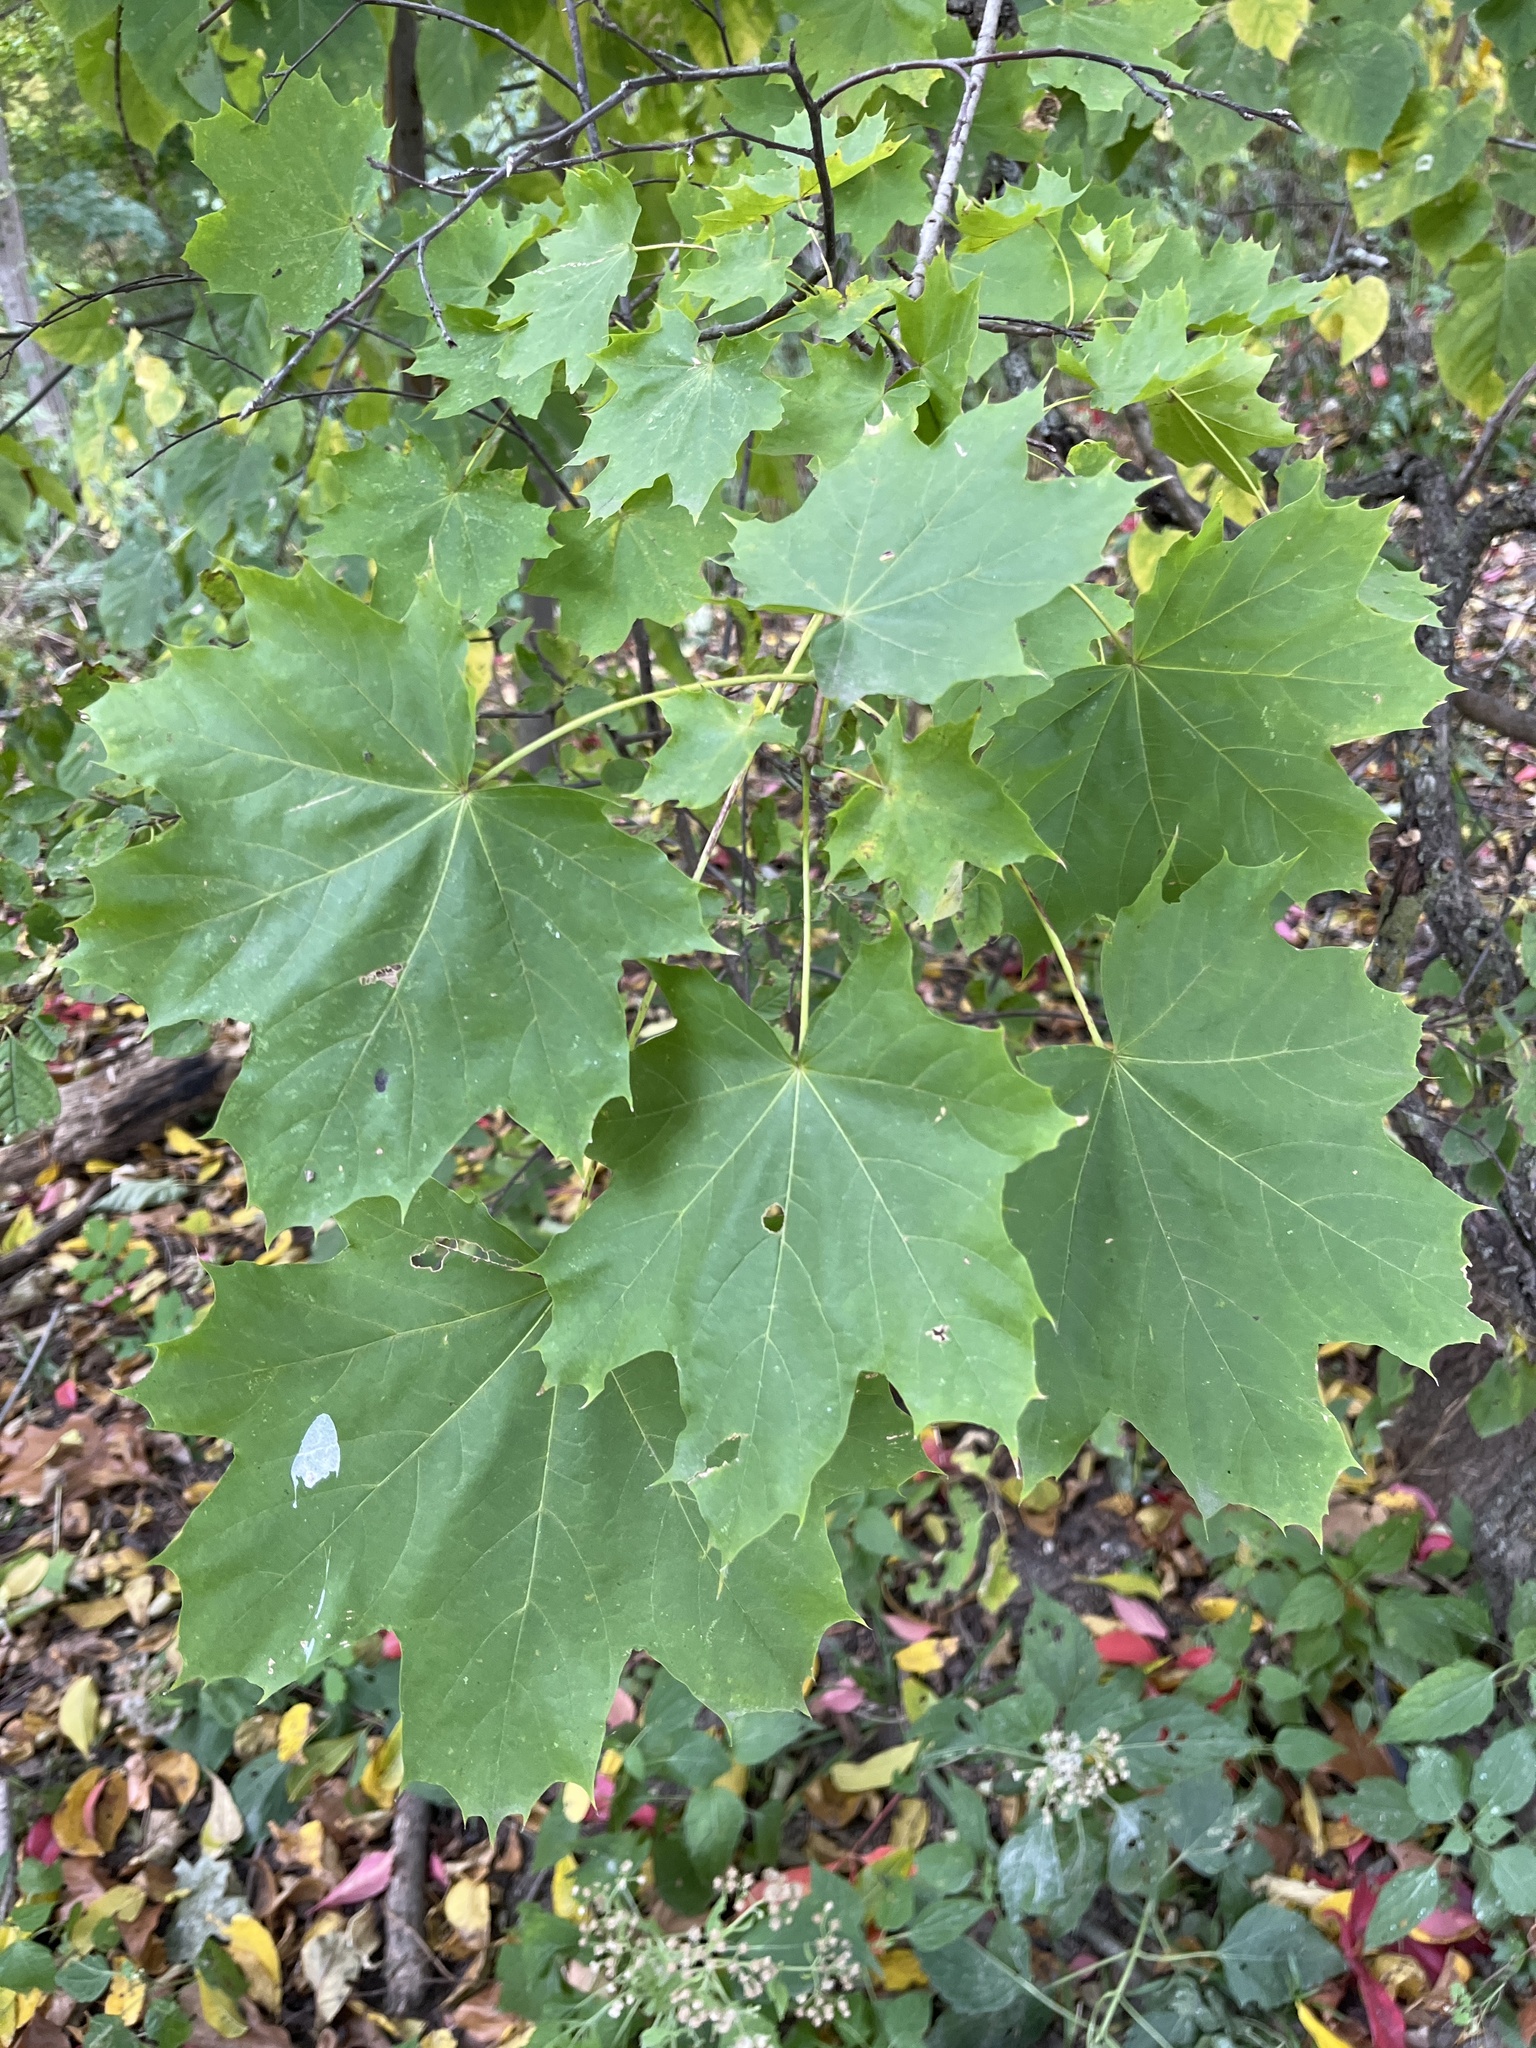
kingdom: Plantae
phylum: Tracheophyta
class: Magnoliopsida
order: Sapindales
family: Sapindaceae
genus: Acer
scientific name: Acer platanoides
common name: Norway maple
